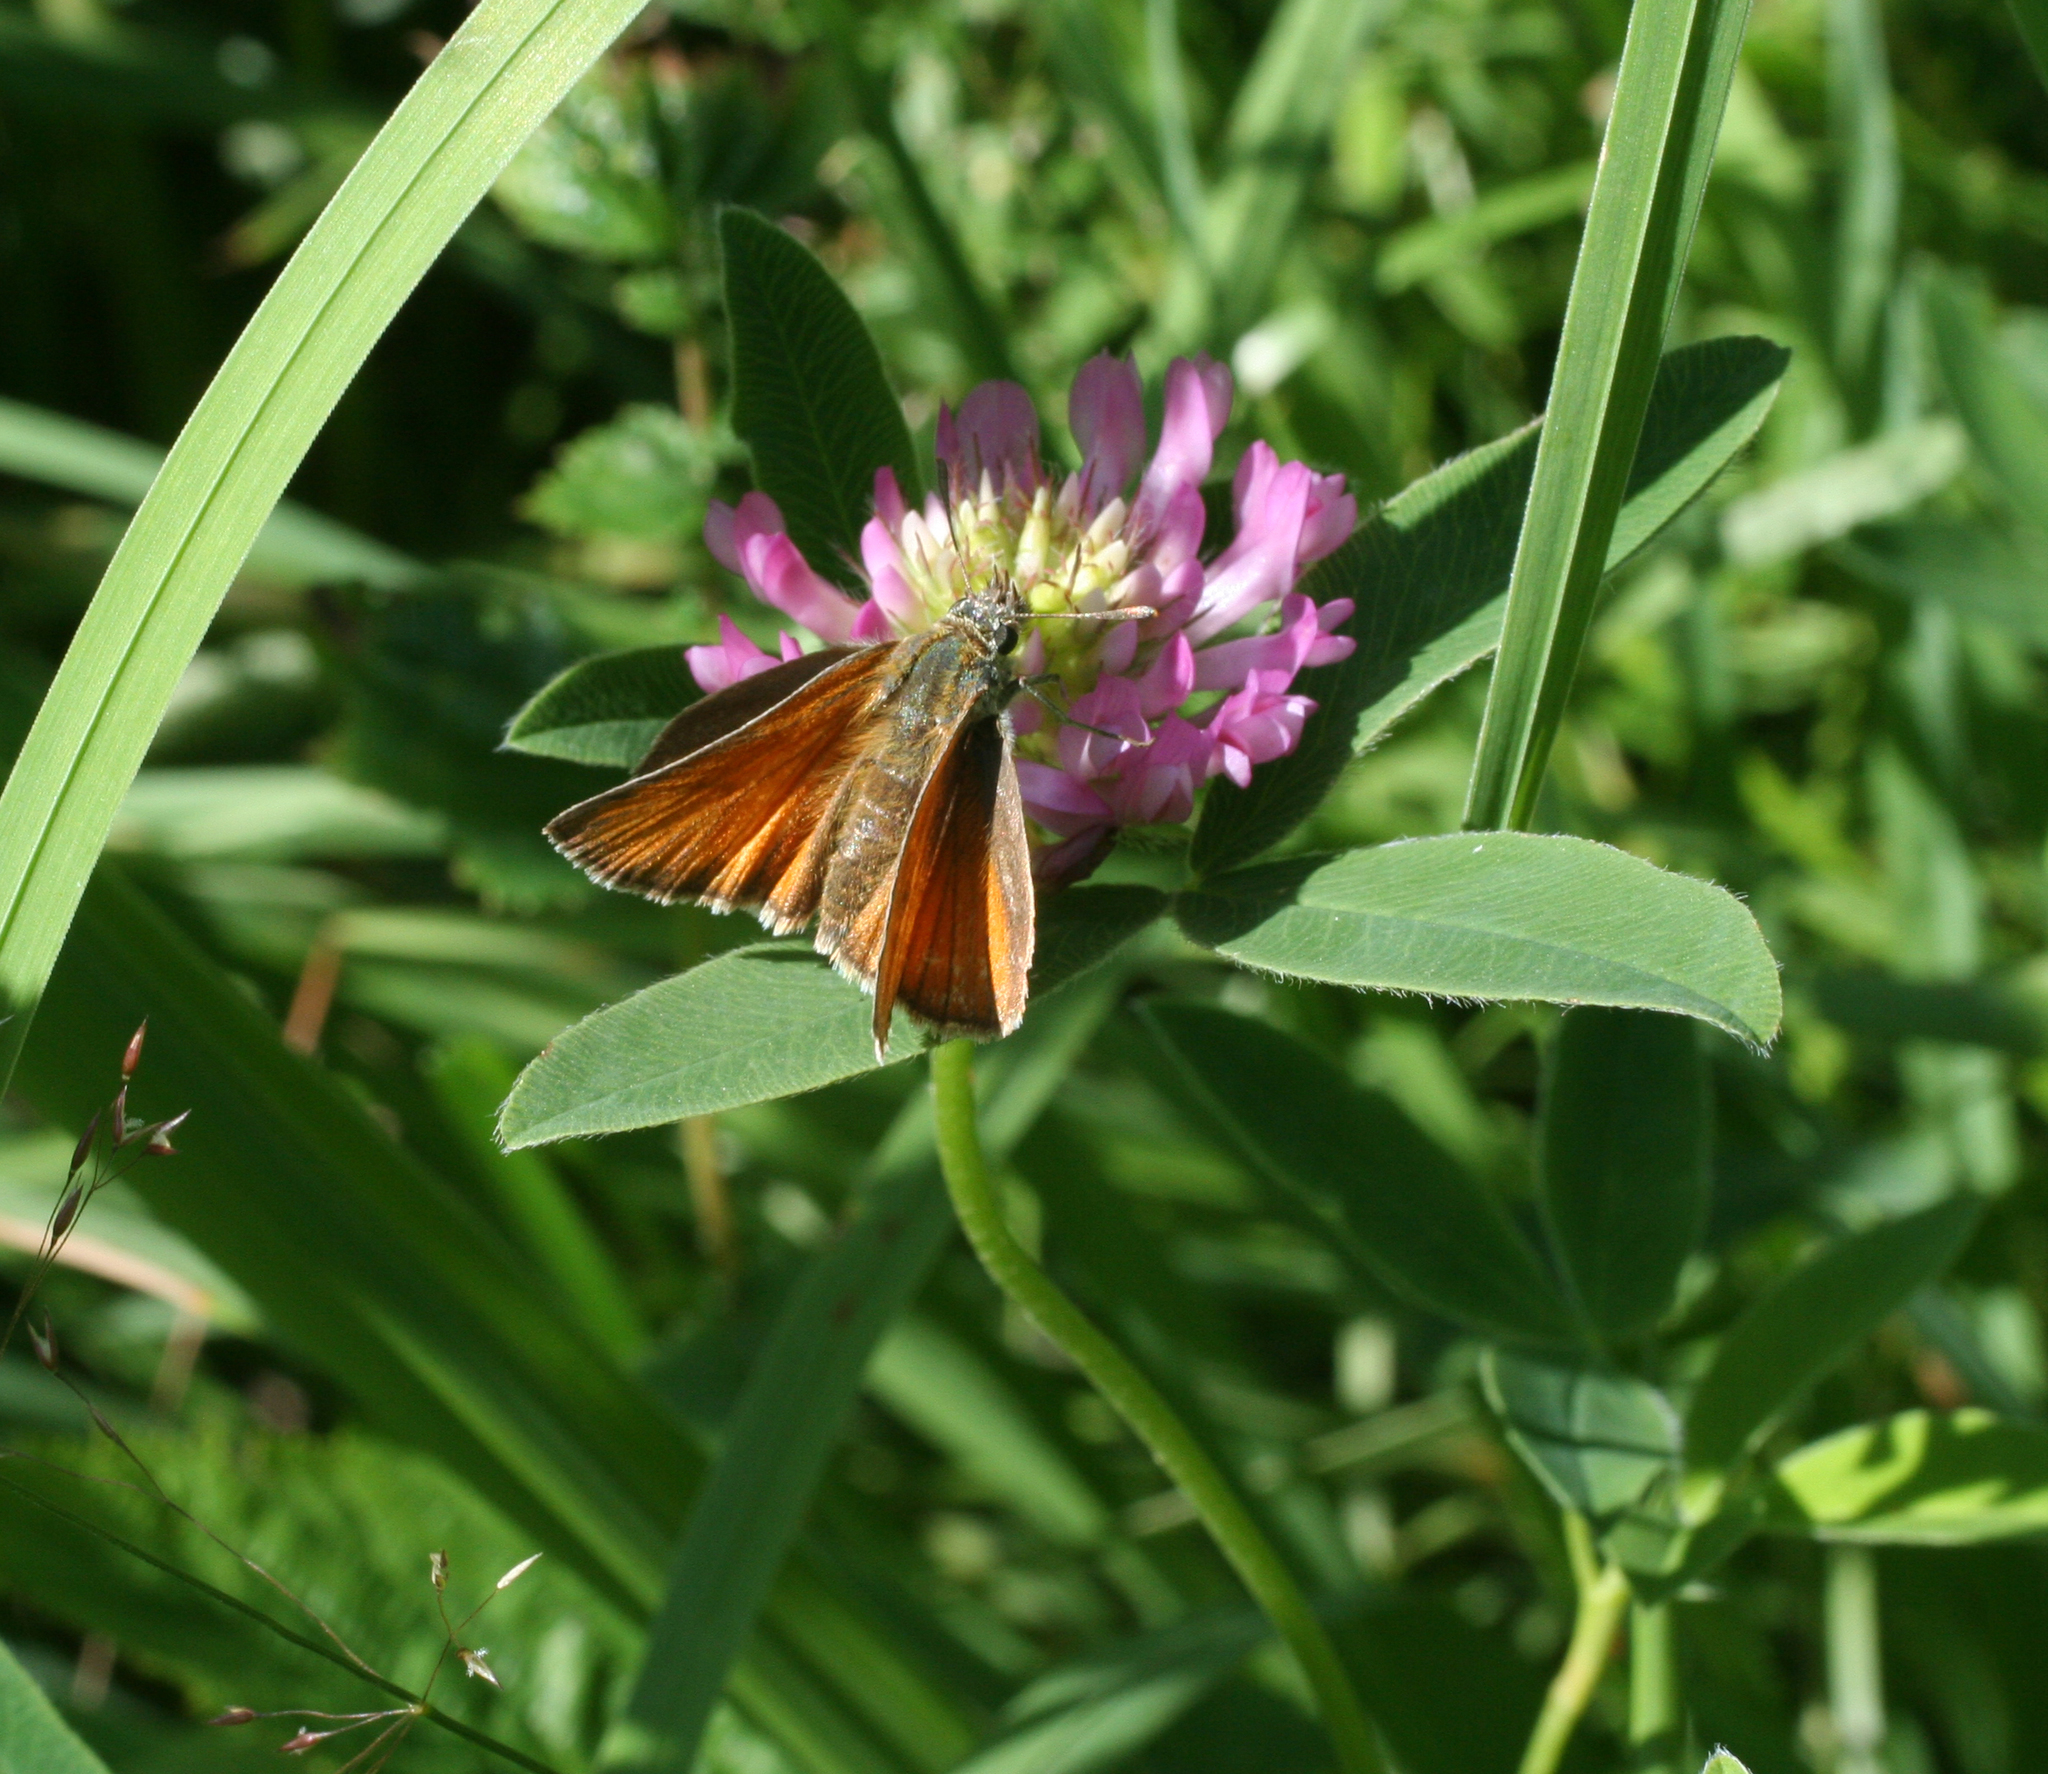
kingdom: Plantae
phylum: Tracheophyta
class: Magnoliopsida
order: Fabales
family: Fabaceae
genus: Trifolium
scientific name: Trifolium medium
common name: Zigzag clover
